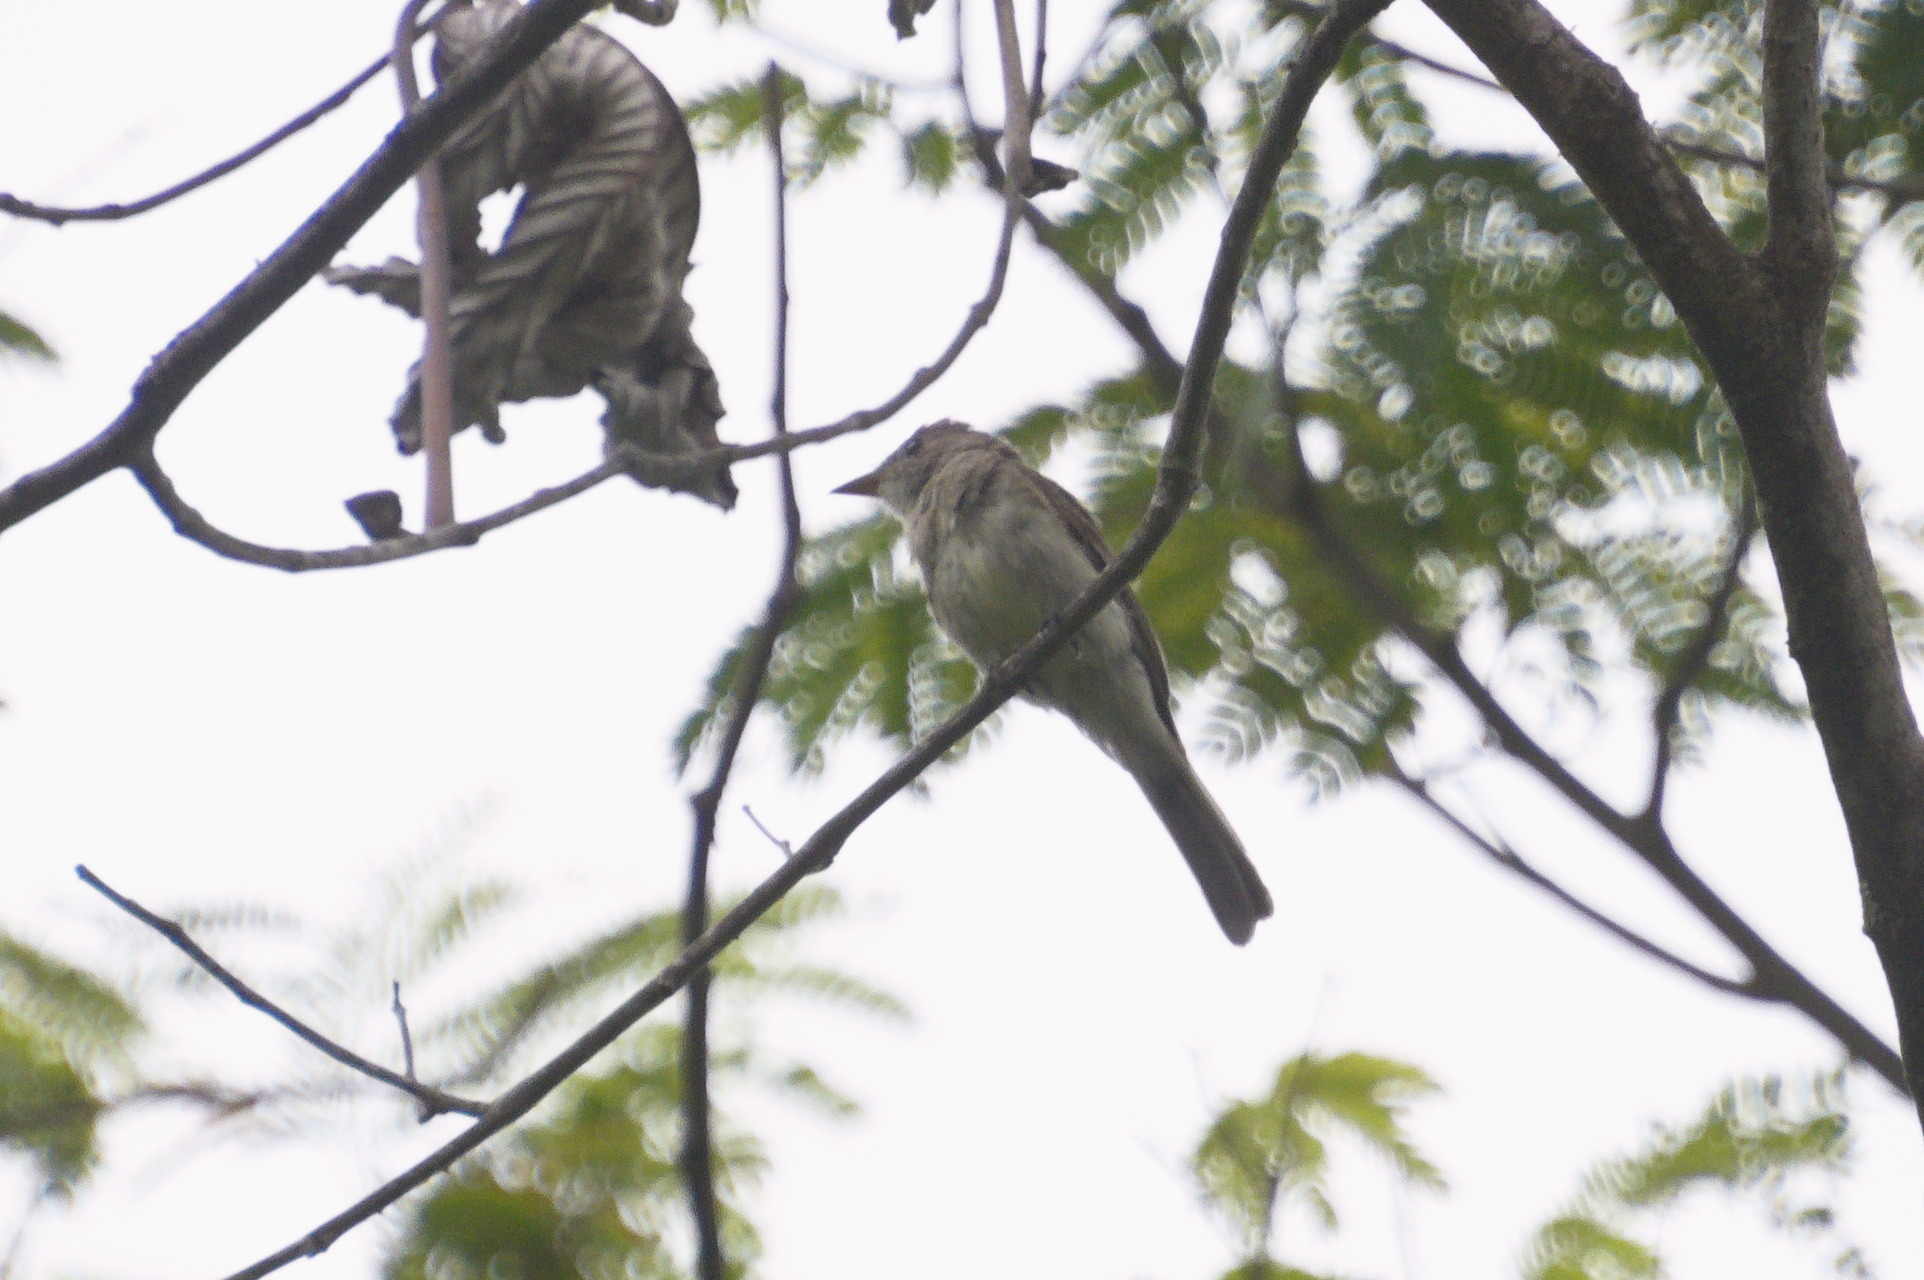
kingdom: Animalia
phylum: Chordata
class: Aves
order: Passeriformes
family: Tyrannidae
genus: Contopus
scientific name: Contopus cinereus
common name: Tropical pewee
